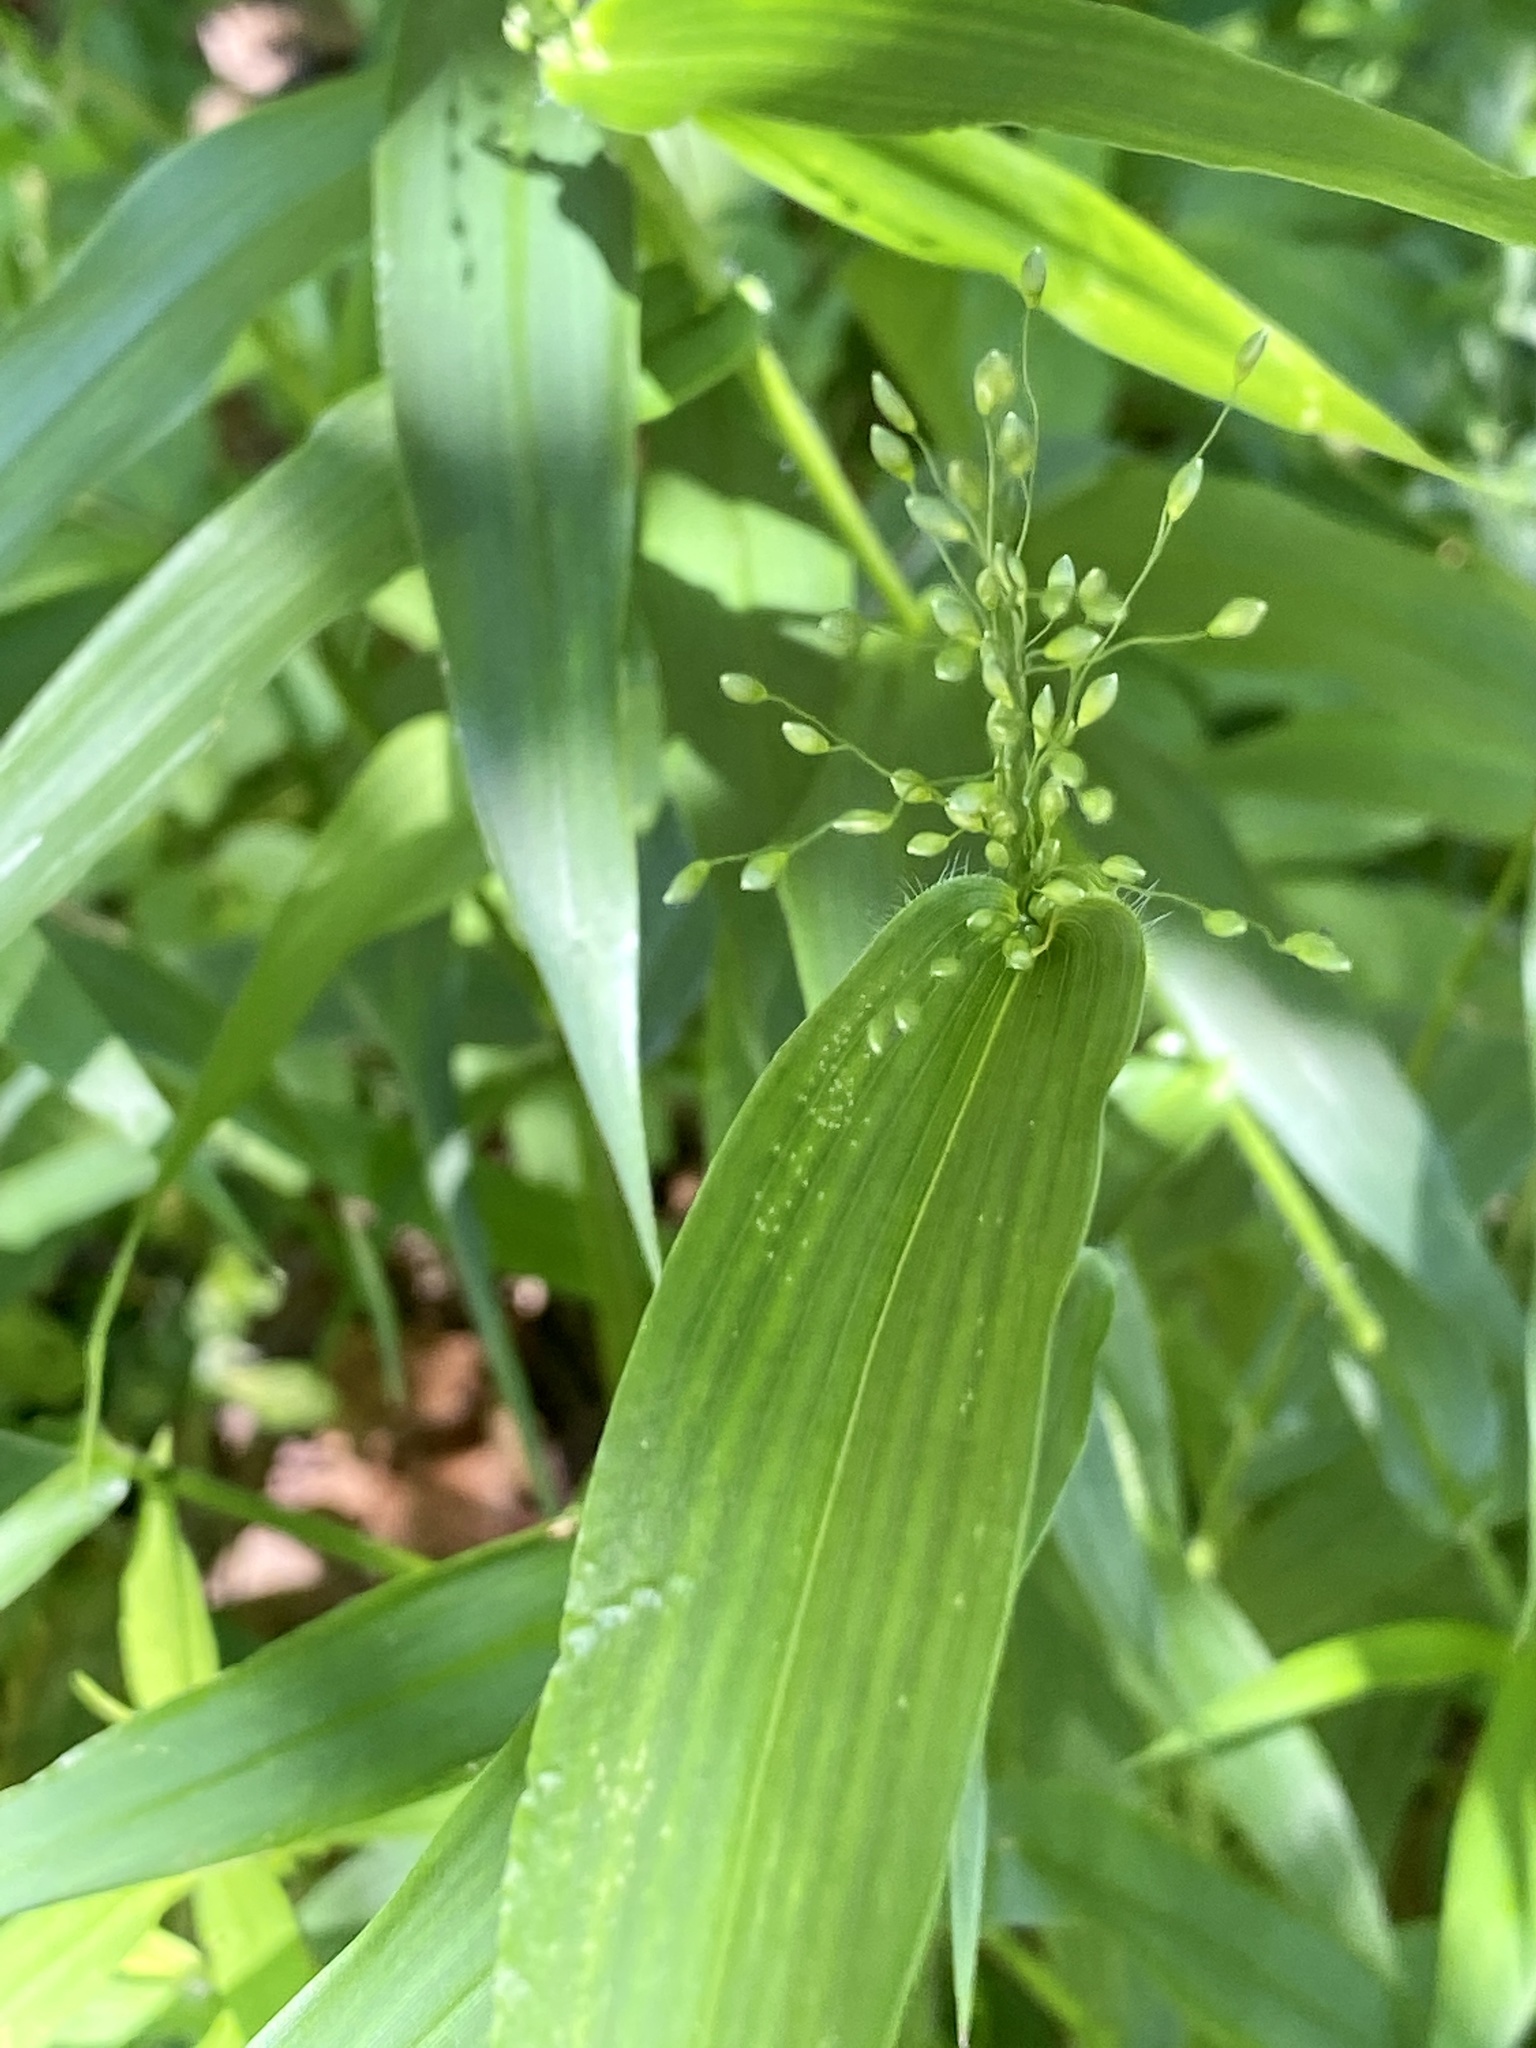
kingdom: Plantae
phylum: Tracheophyta
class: Liliopsida
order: Poales
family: Poaceae
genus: Dichanthelium
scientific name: Dichanthelium clandestinum
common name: Deer-tongue grass
